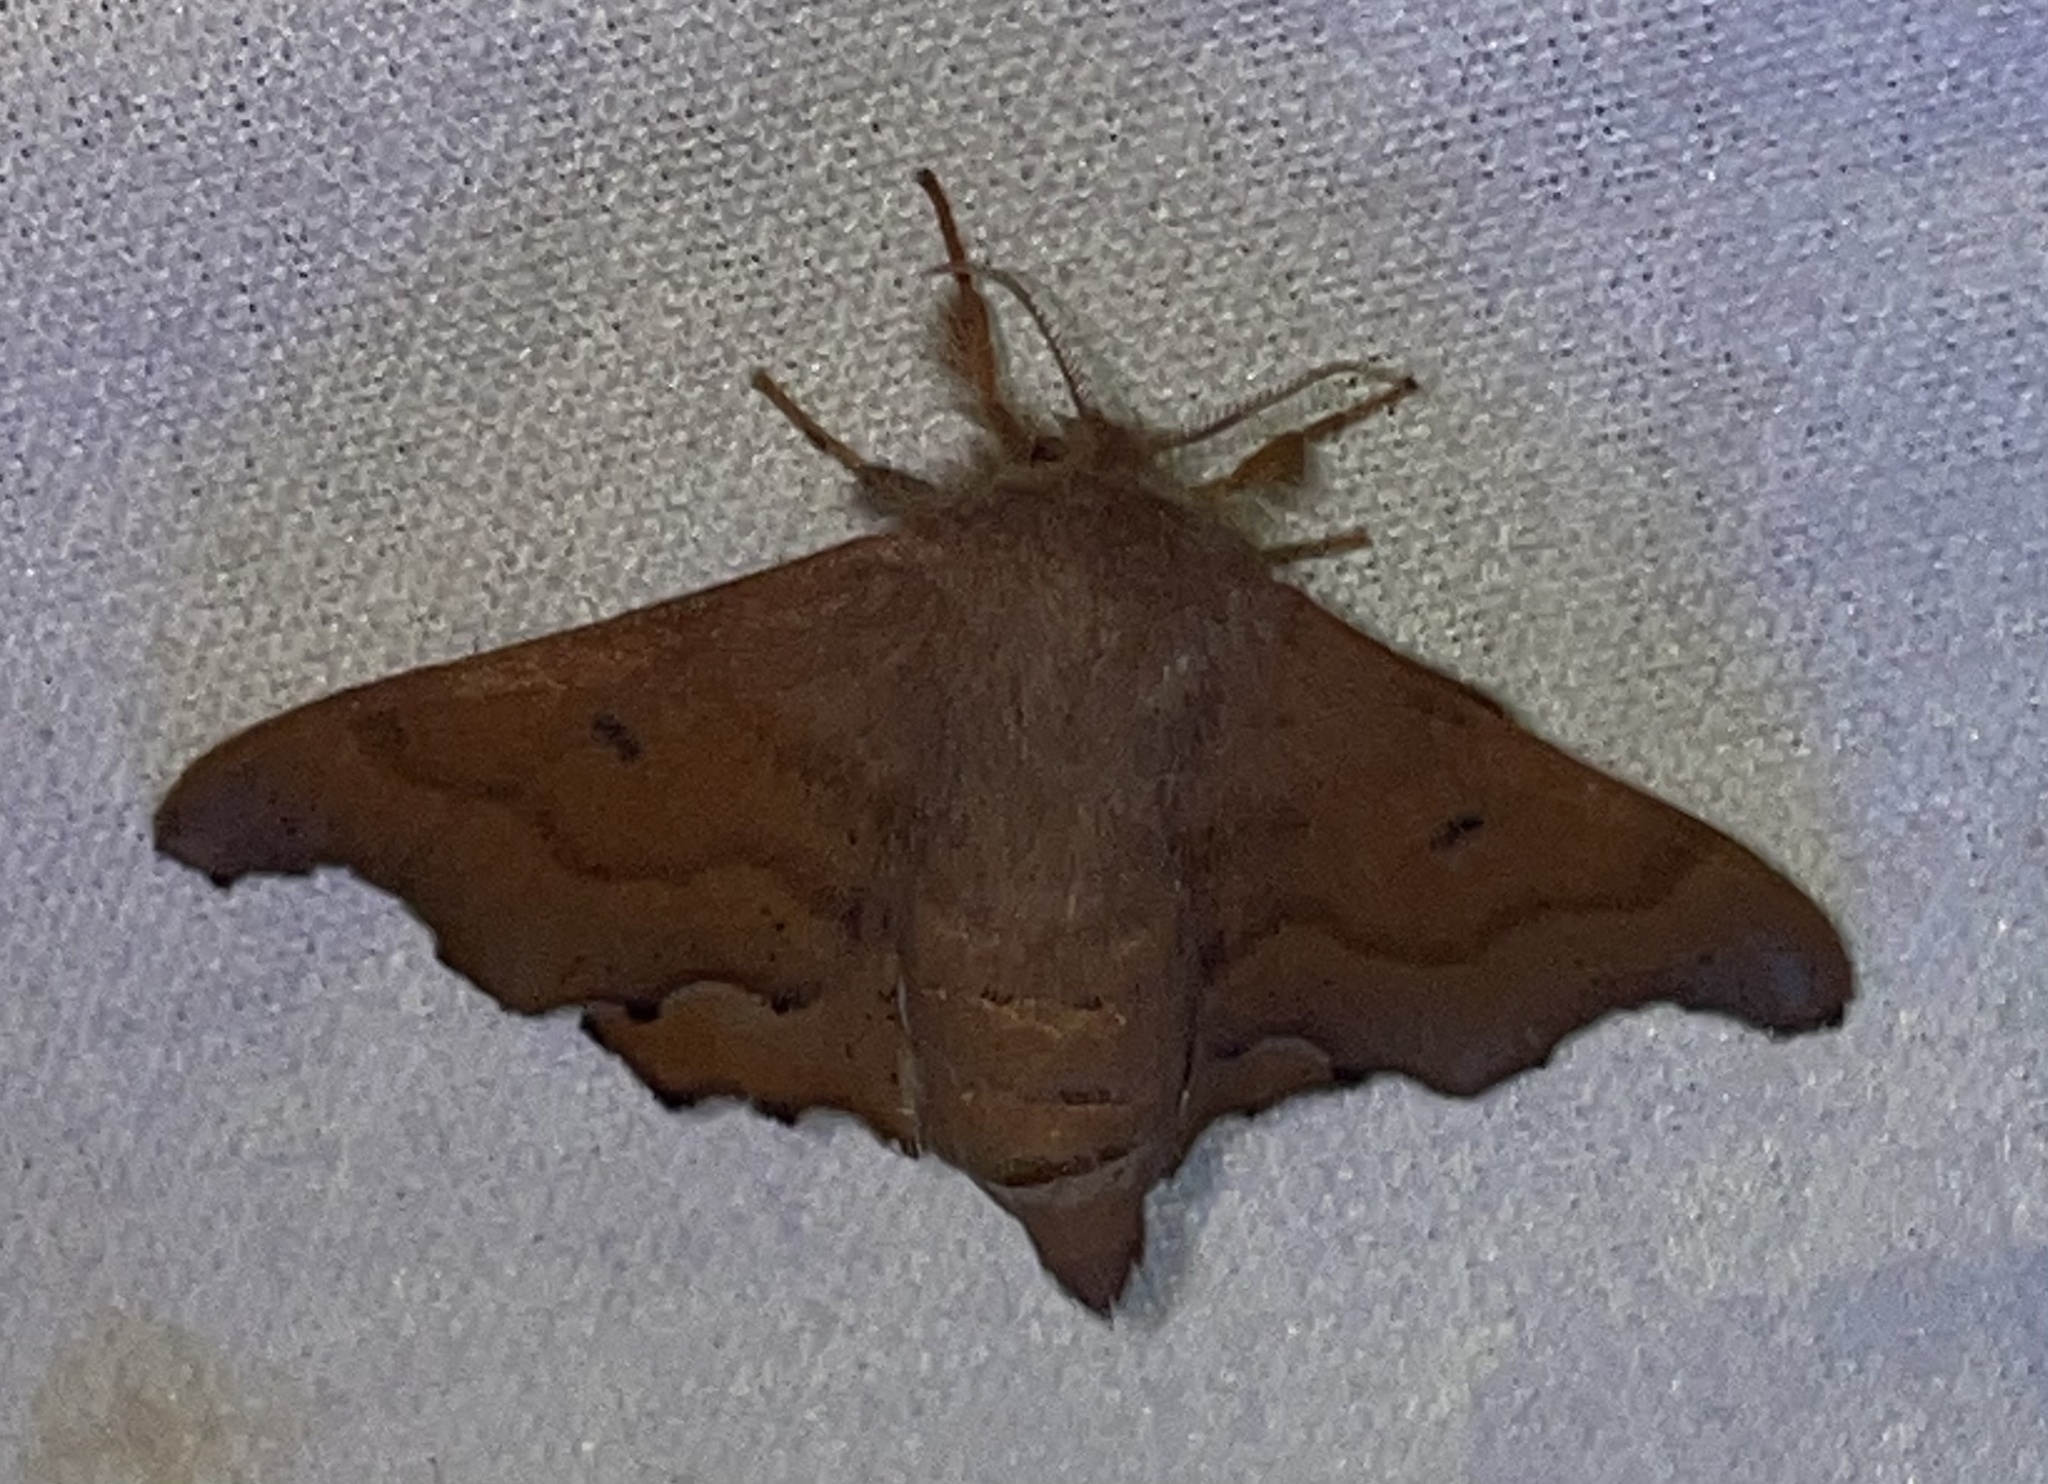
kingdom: Animalia
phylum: Arthropoda
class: Insecta
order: Lepidoptera
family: Mimallonidae
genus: Lacosoma
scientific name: Lacosoma chiridota
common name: Scalloped sack-bearer moth
